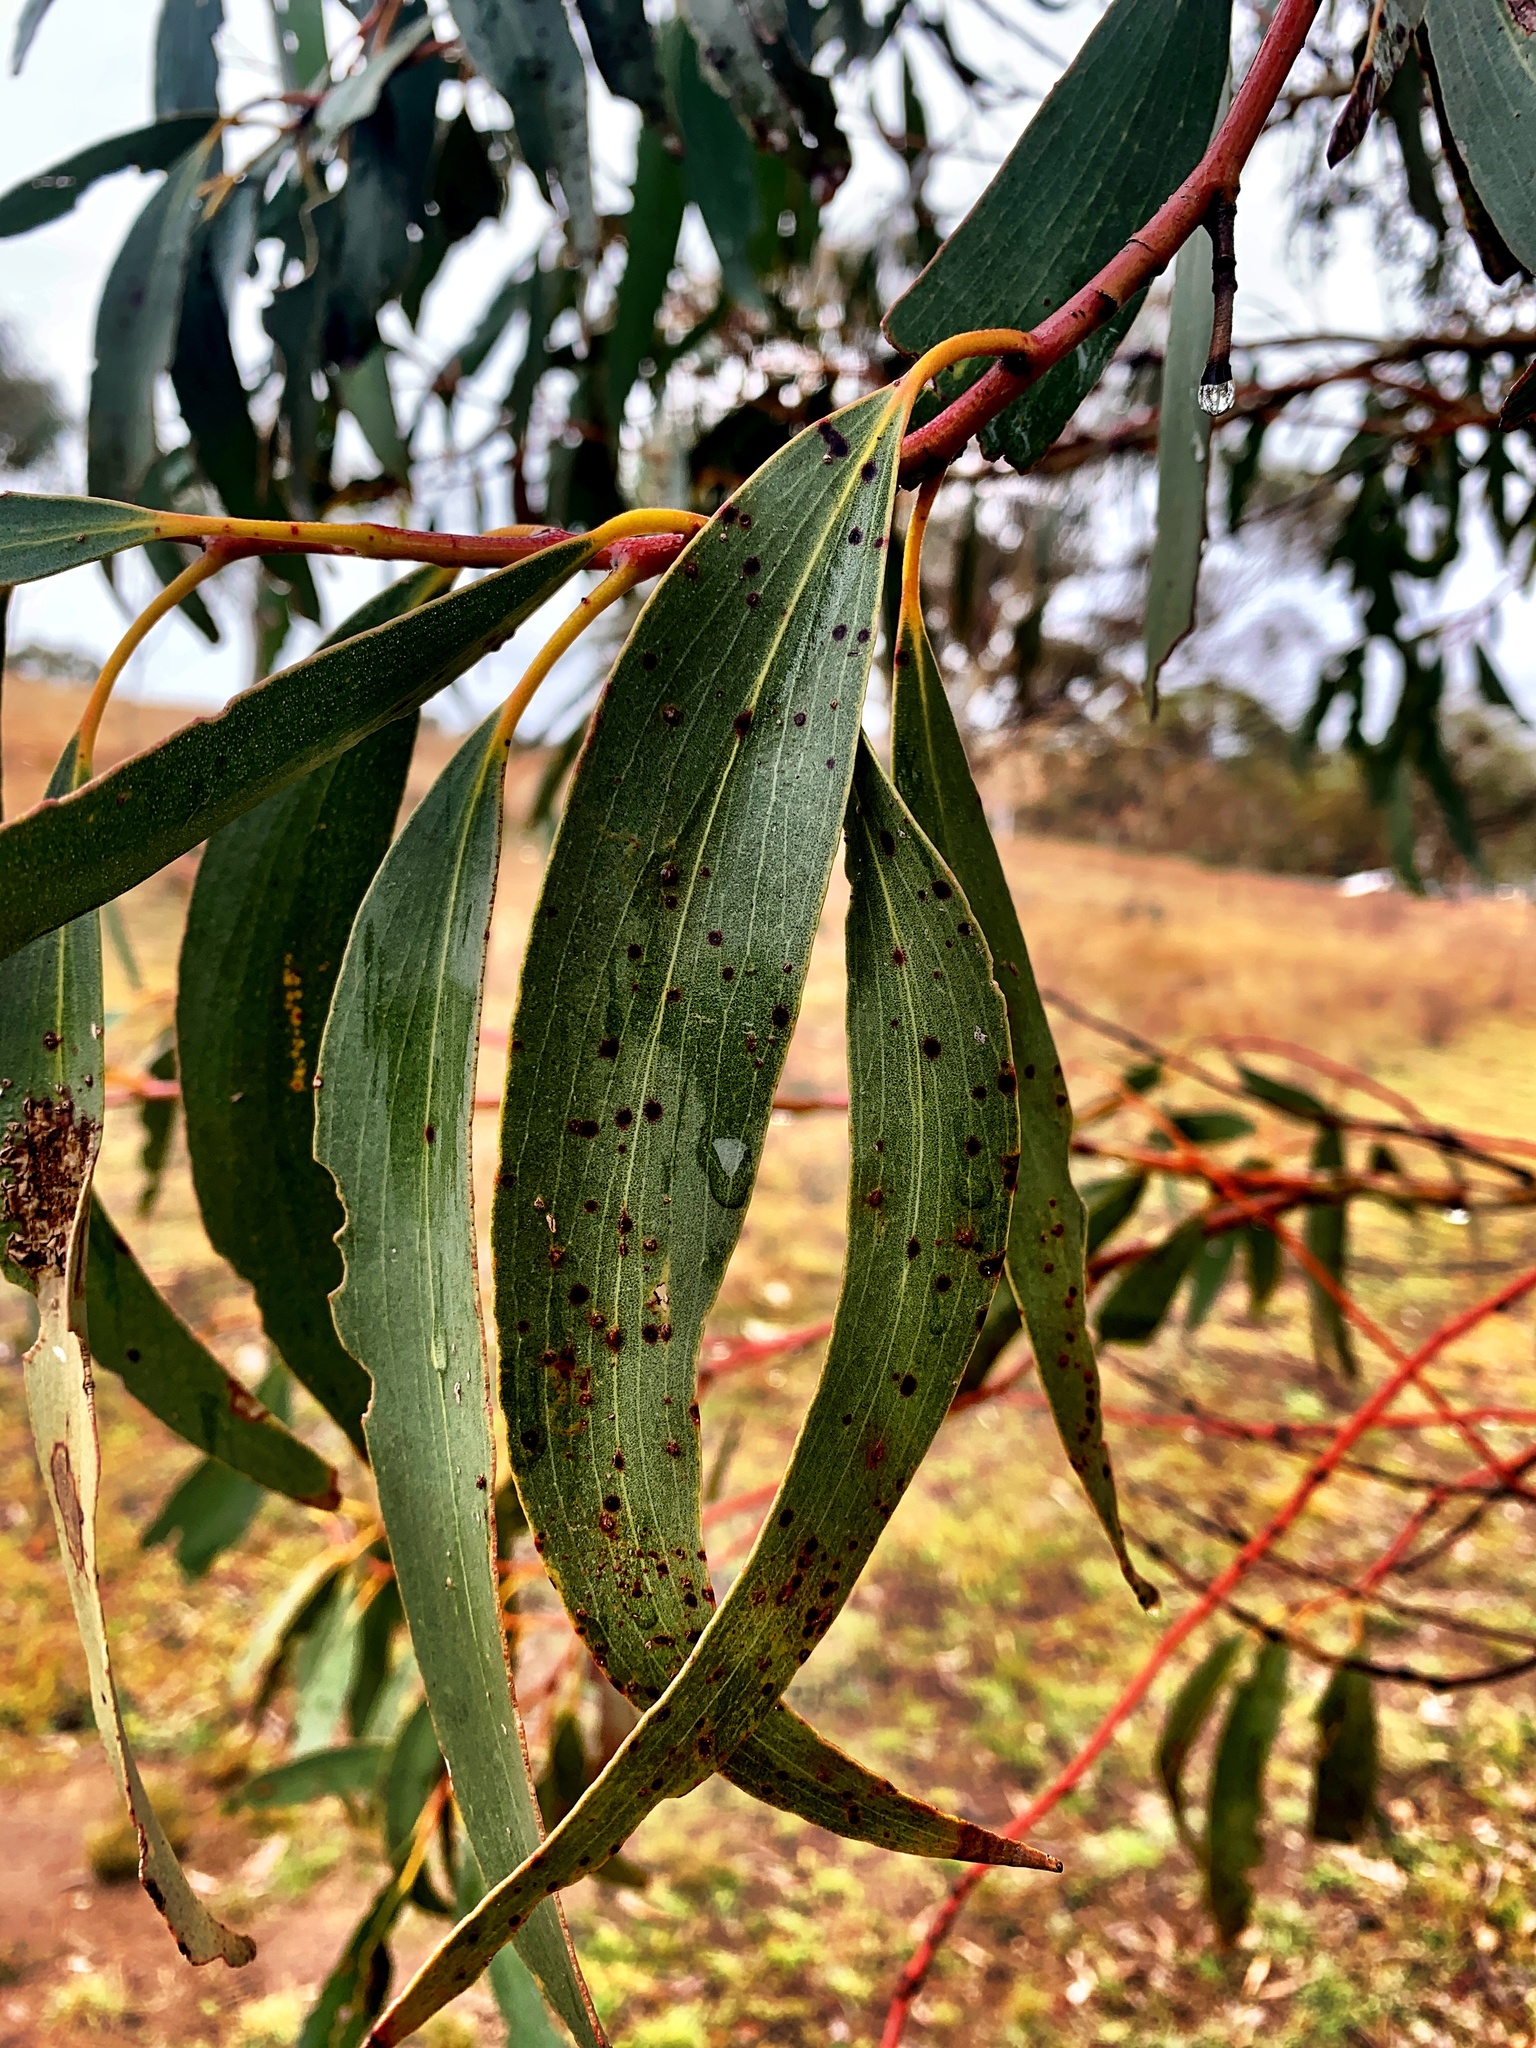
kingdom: Plantae
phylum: Tracheophyta
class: Magnoliopsida
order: Myrtales
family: Myrtaceae
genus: Eucalyptus
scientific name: Eucalyptus pauciflora
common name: Snow gum
